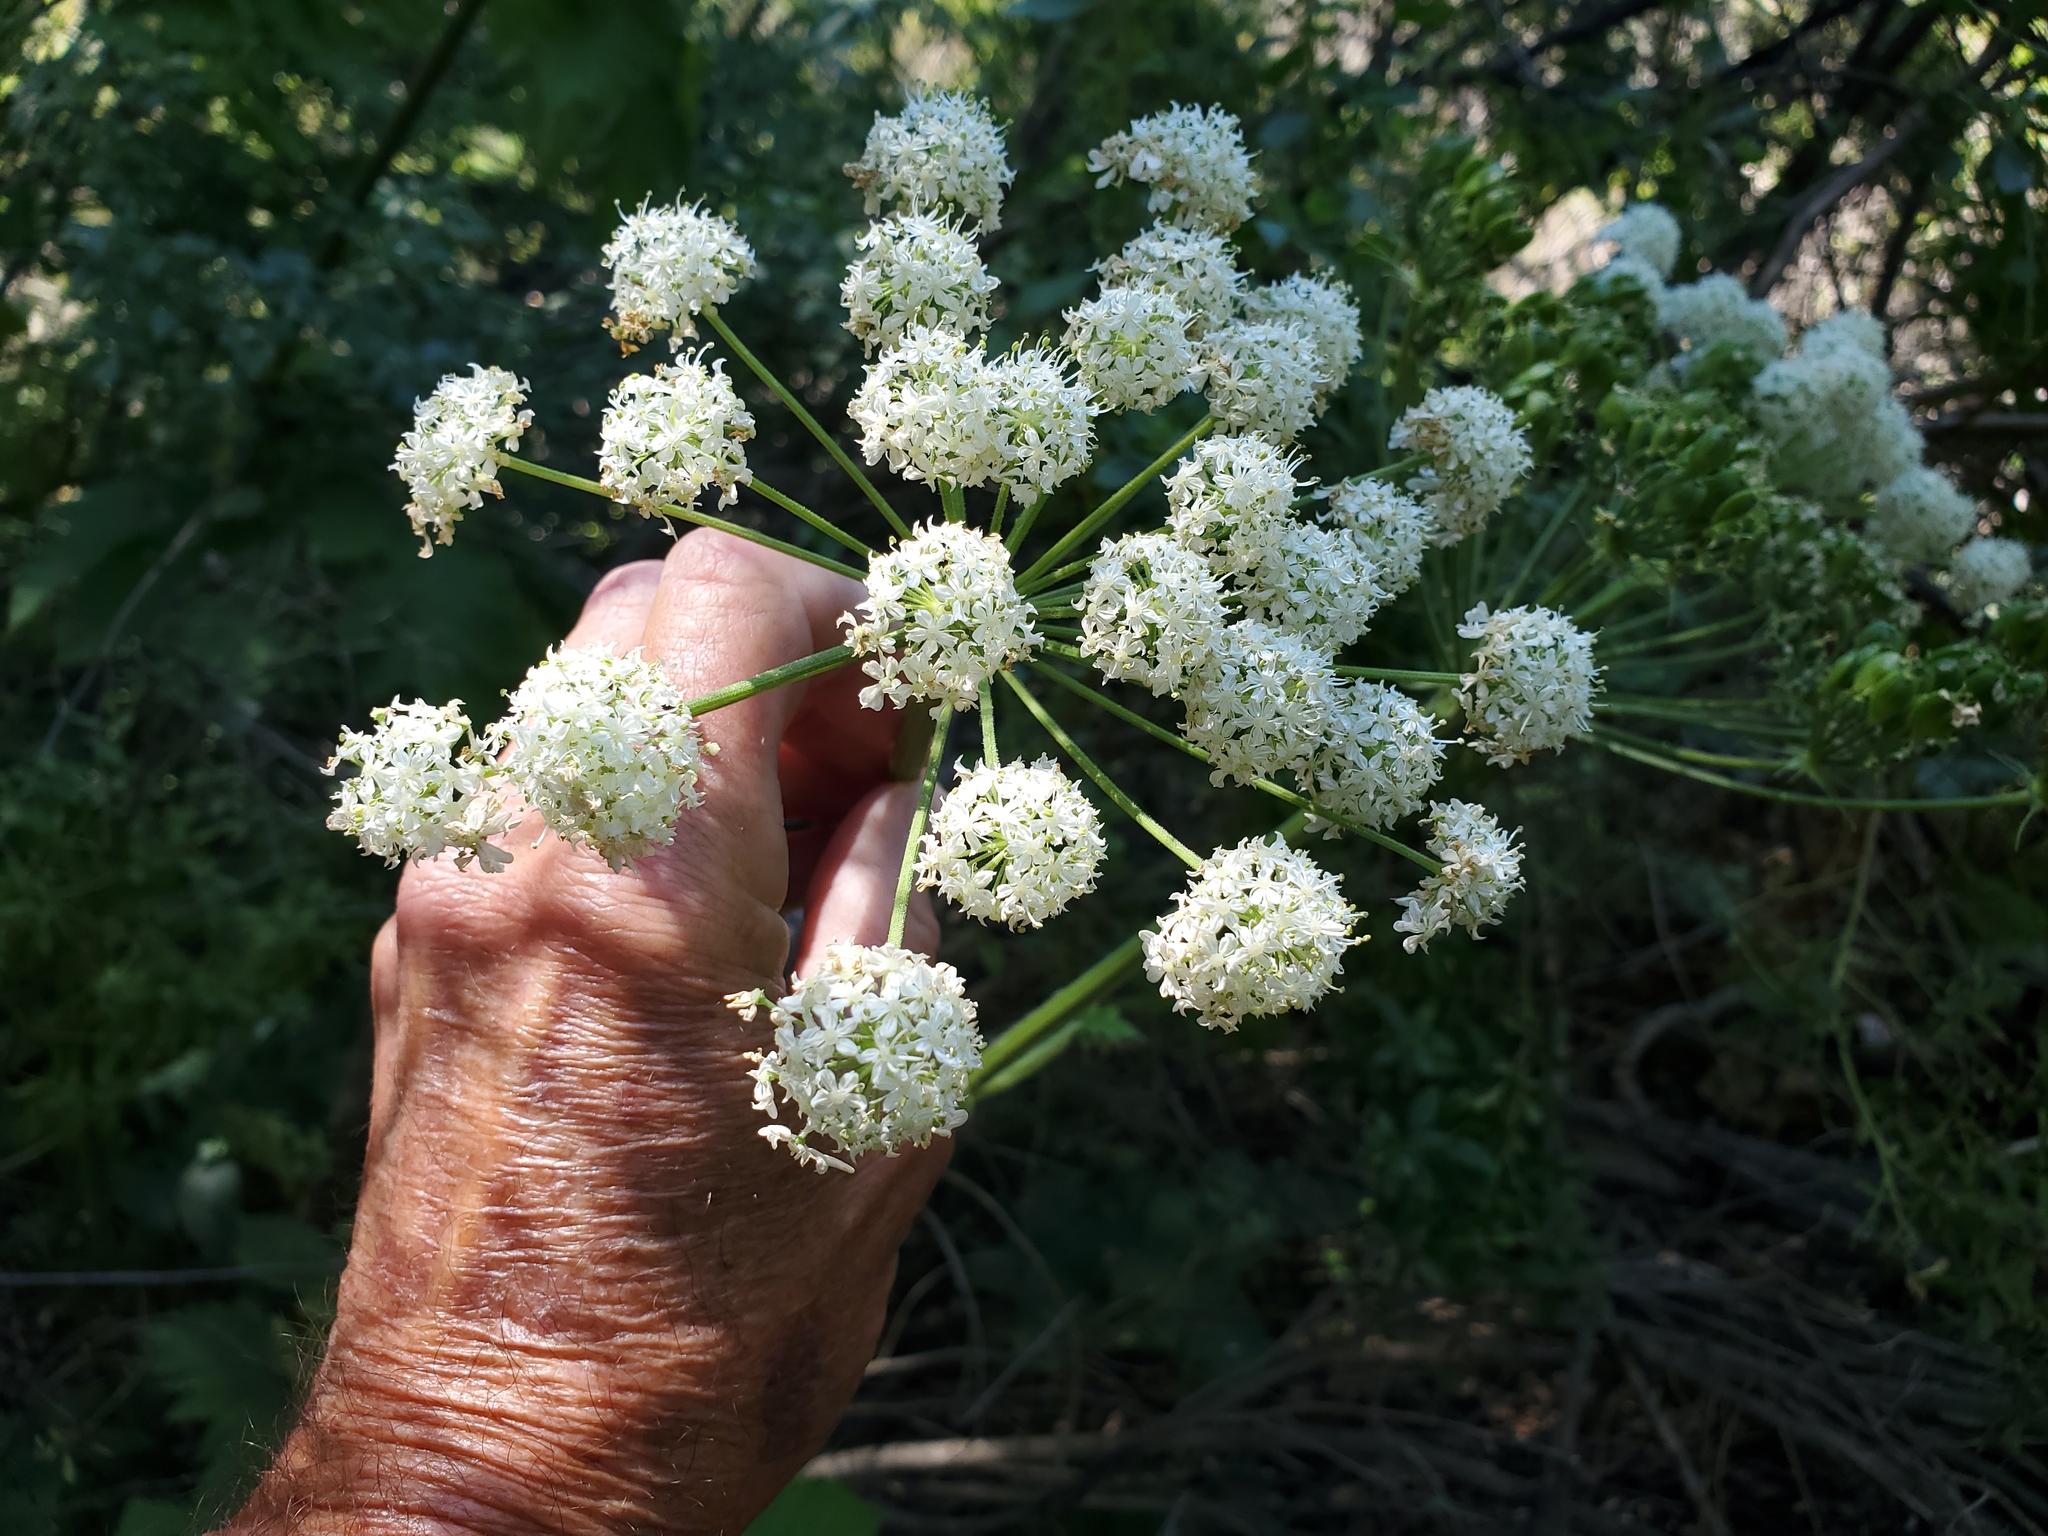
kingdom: Plantae
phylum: Tracheophyta
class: Magnoliopsida
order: Apiales
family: Apiaceae
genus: Heracleum
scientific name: Heracleum maximum
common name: American cow parsnip
